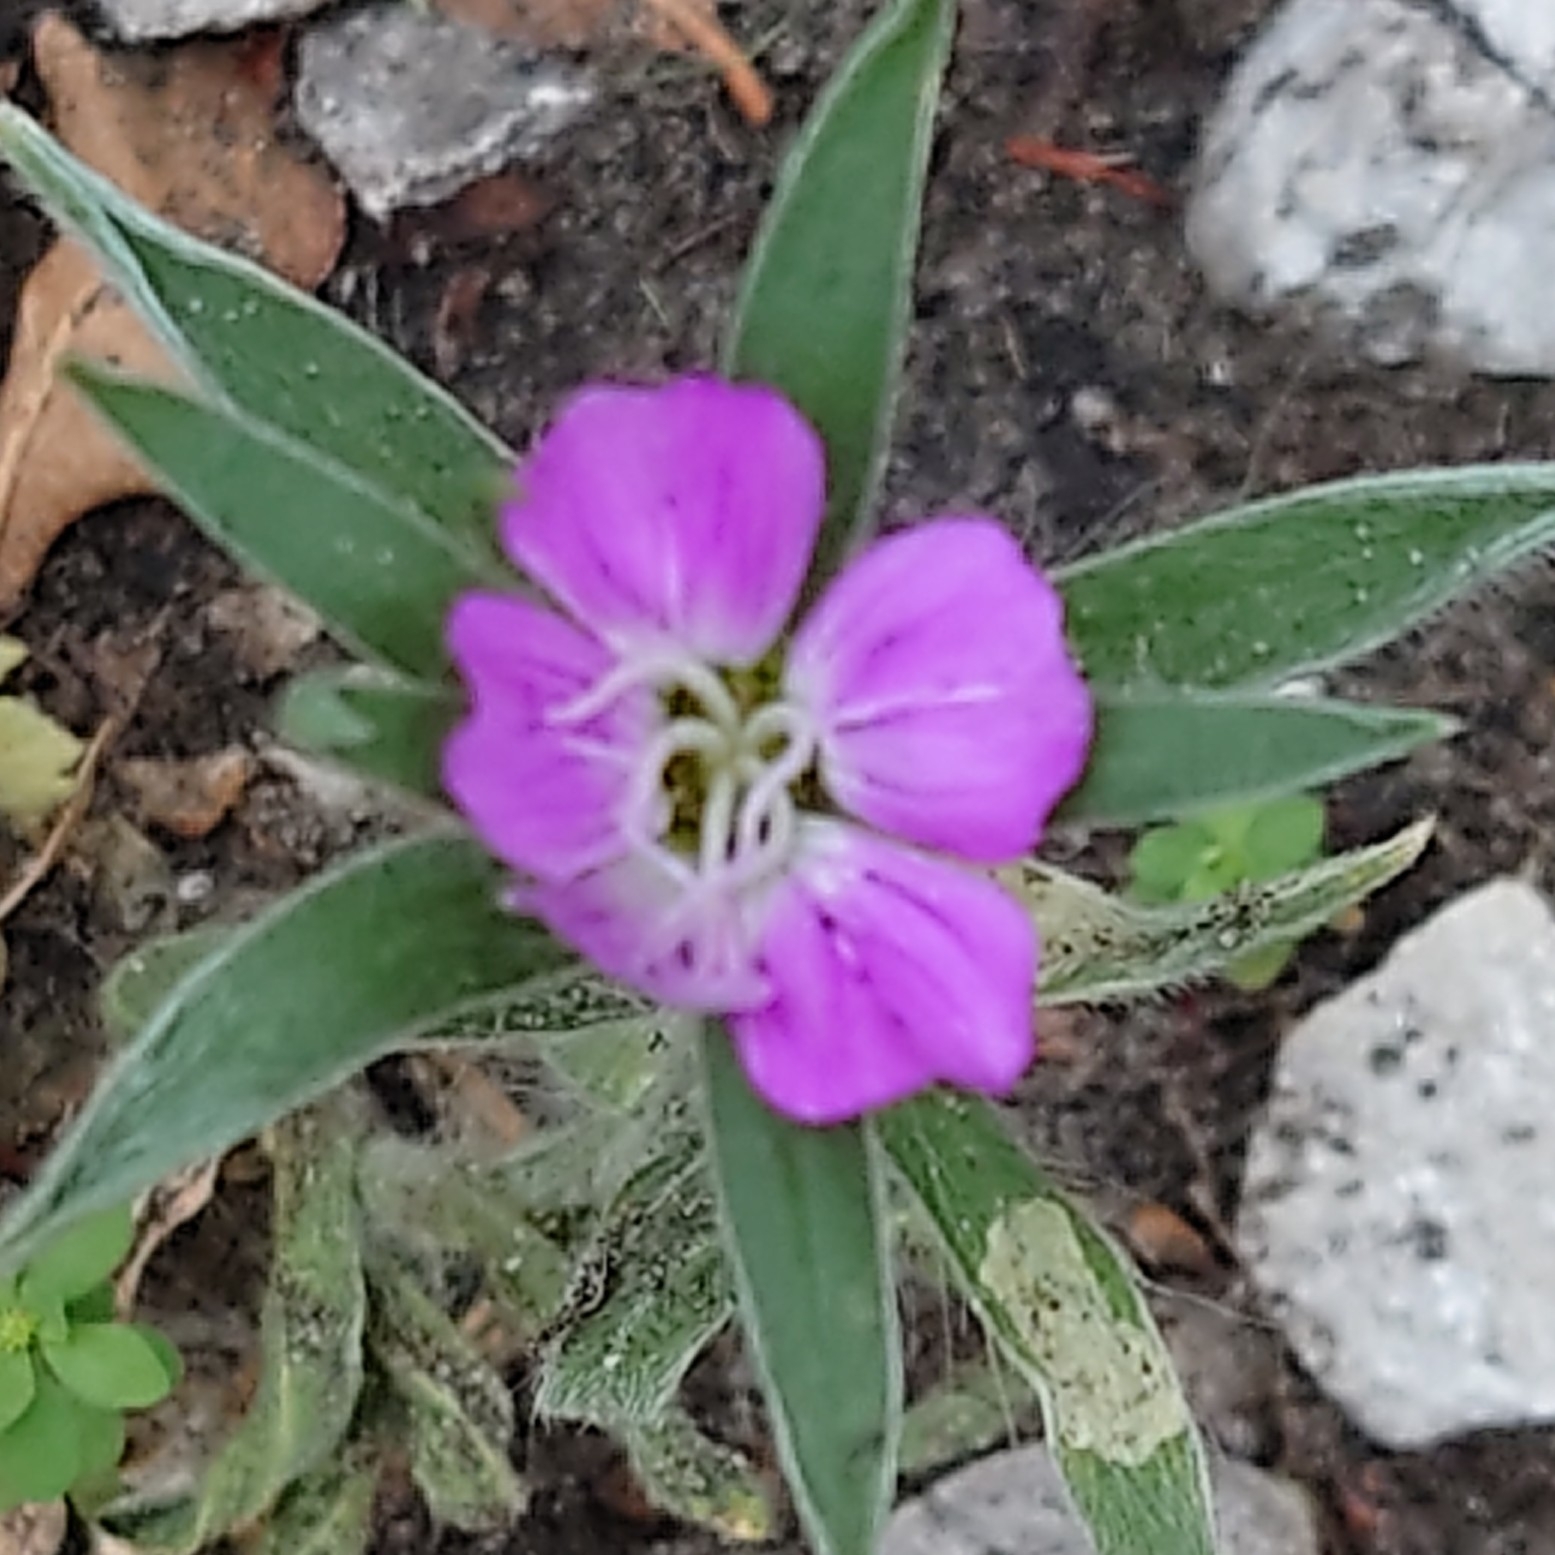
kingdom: Plantae
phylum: Tracheophyta
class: Magnoliopsida
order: Caryophyllales
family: Caryophyllaceae
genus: Agrostemma
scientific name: Agrostemma githago
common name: Common corncockle
